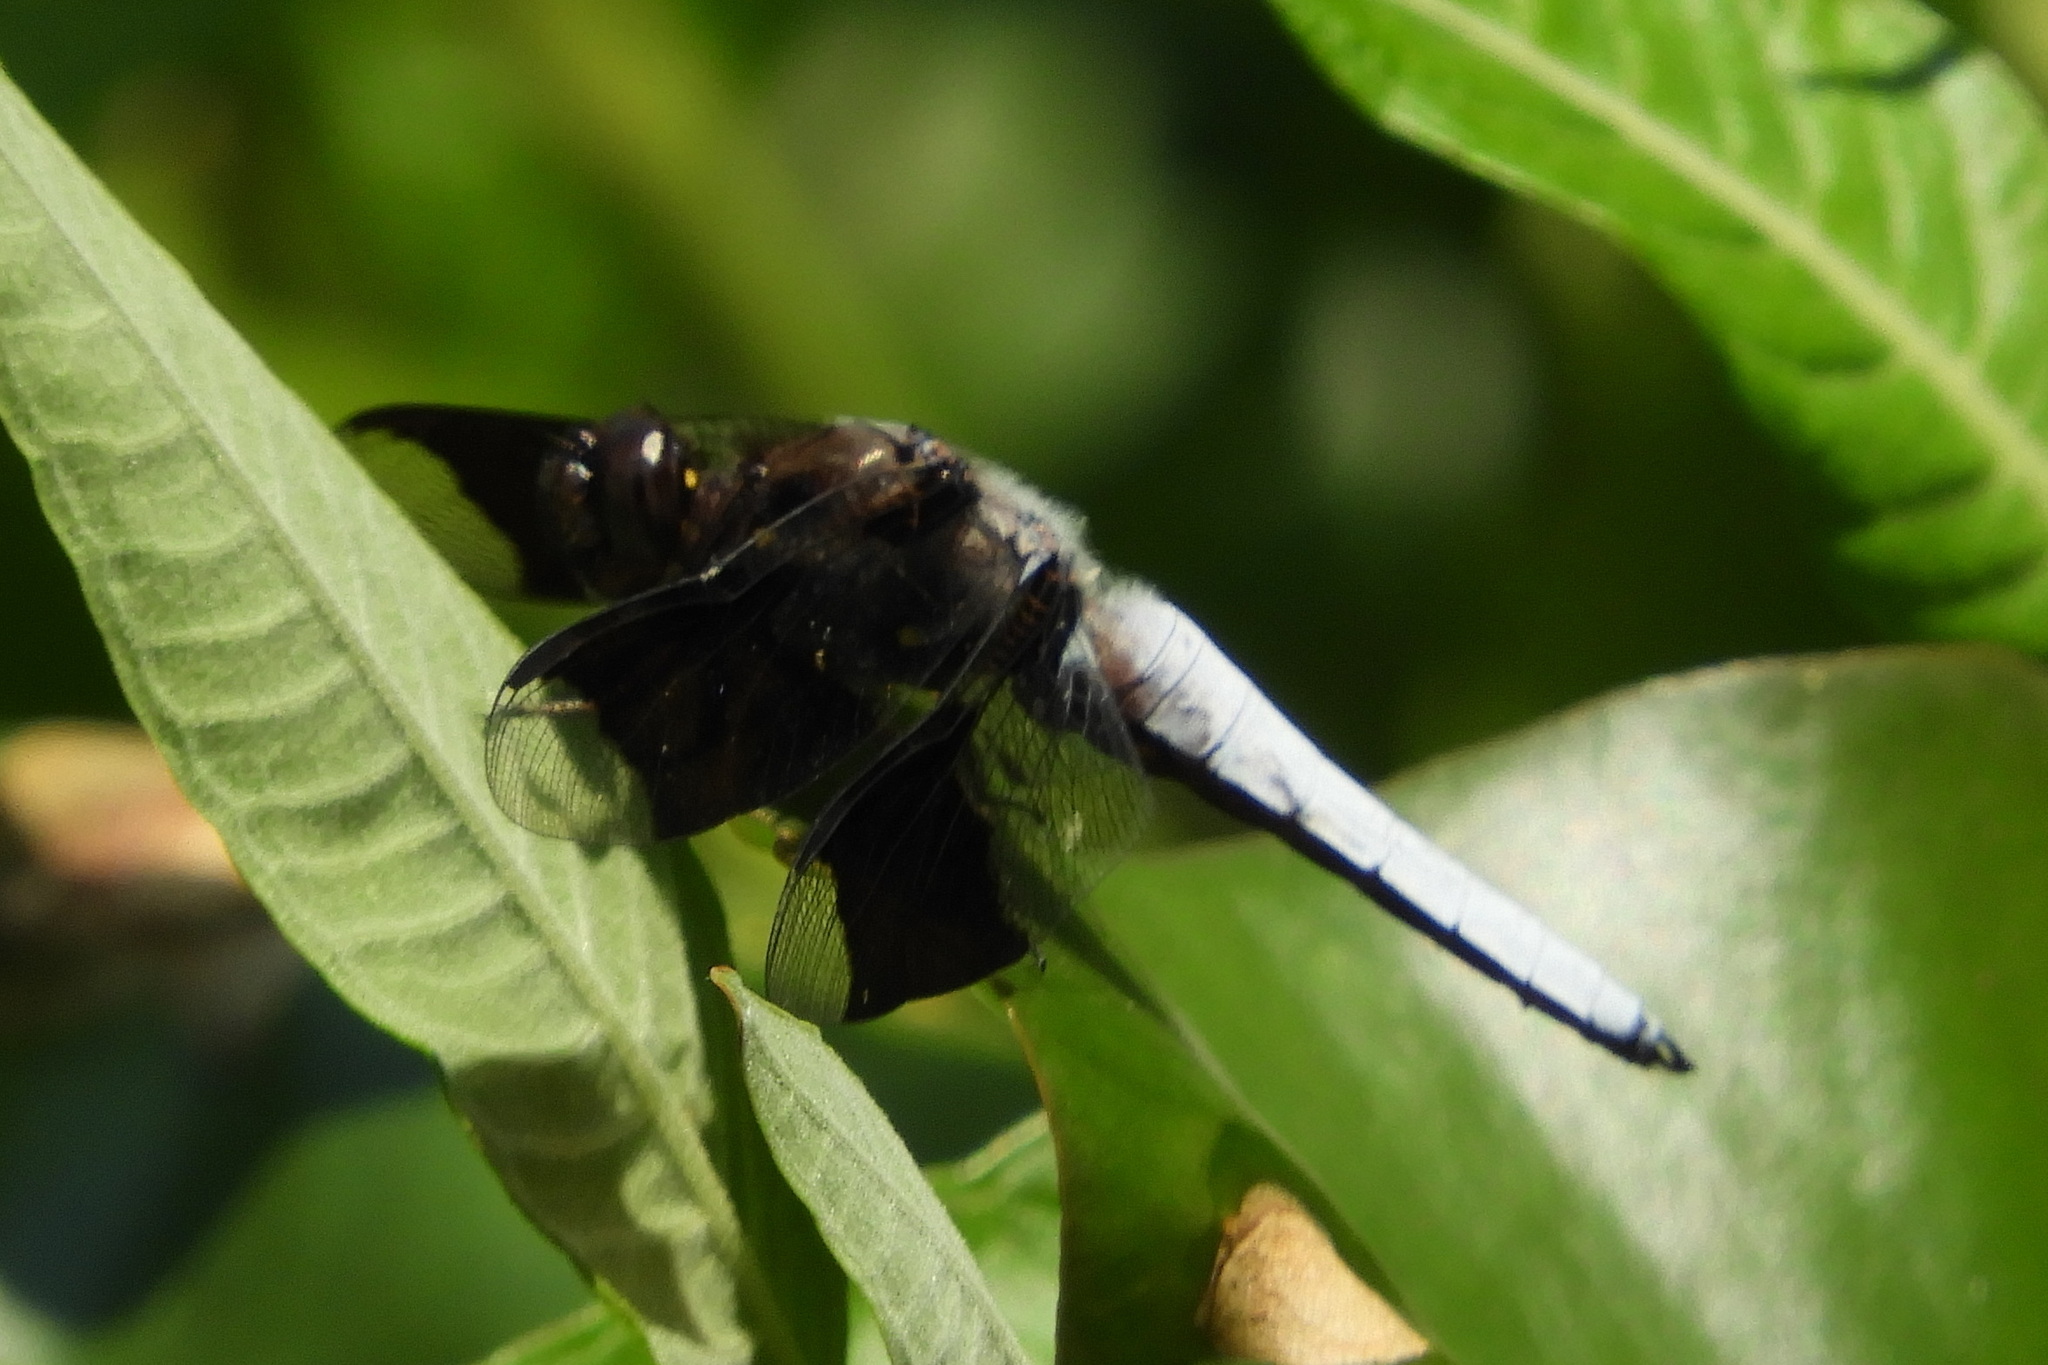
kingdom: Animalia
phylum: Arthropoda
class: Insecta
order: Odonata
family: Libellulidae
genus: Plathemis
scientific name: Plathemis lydia
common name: Common whitetail
